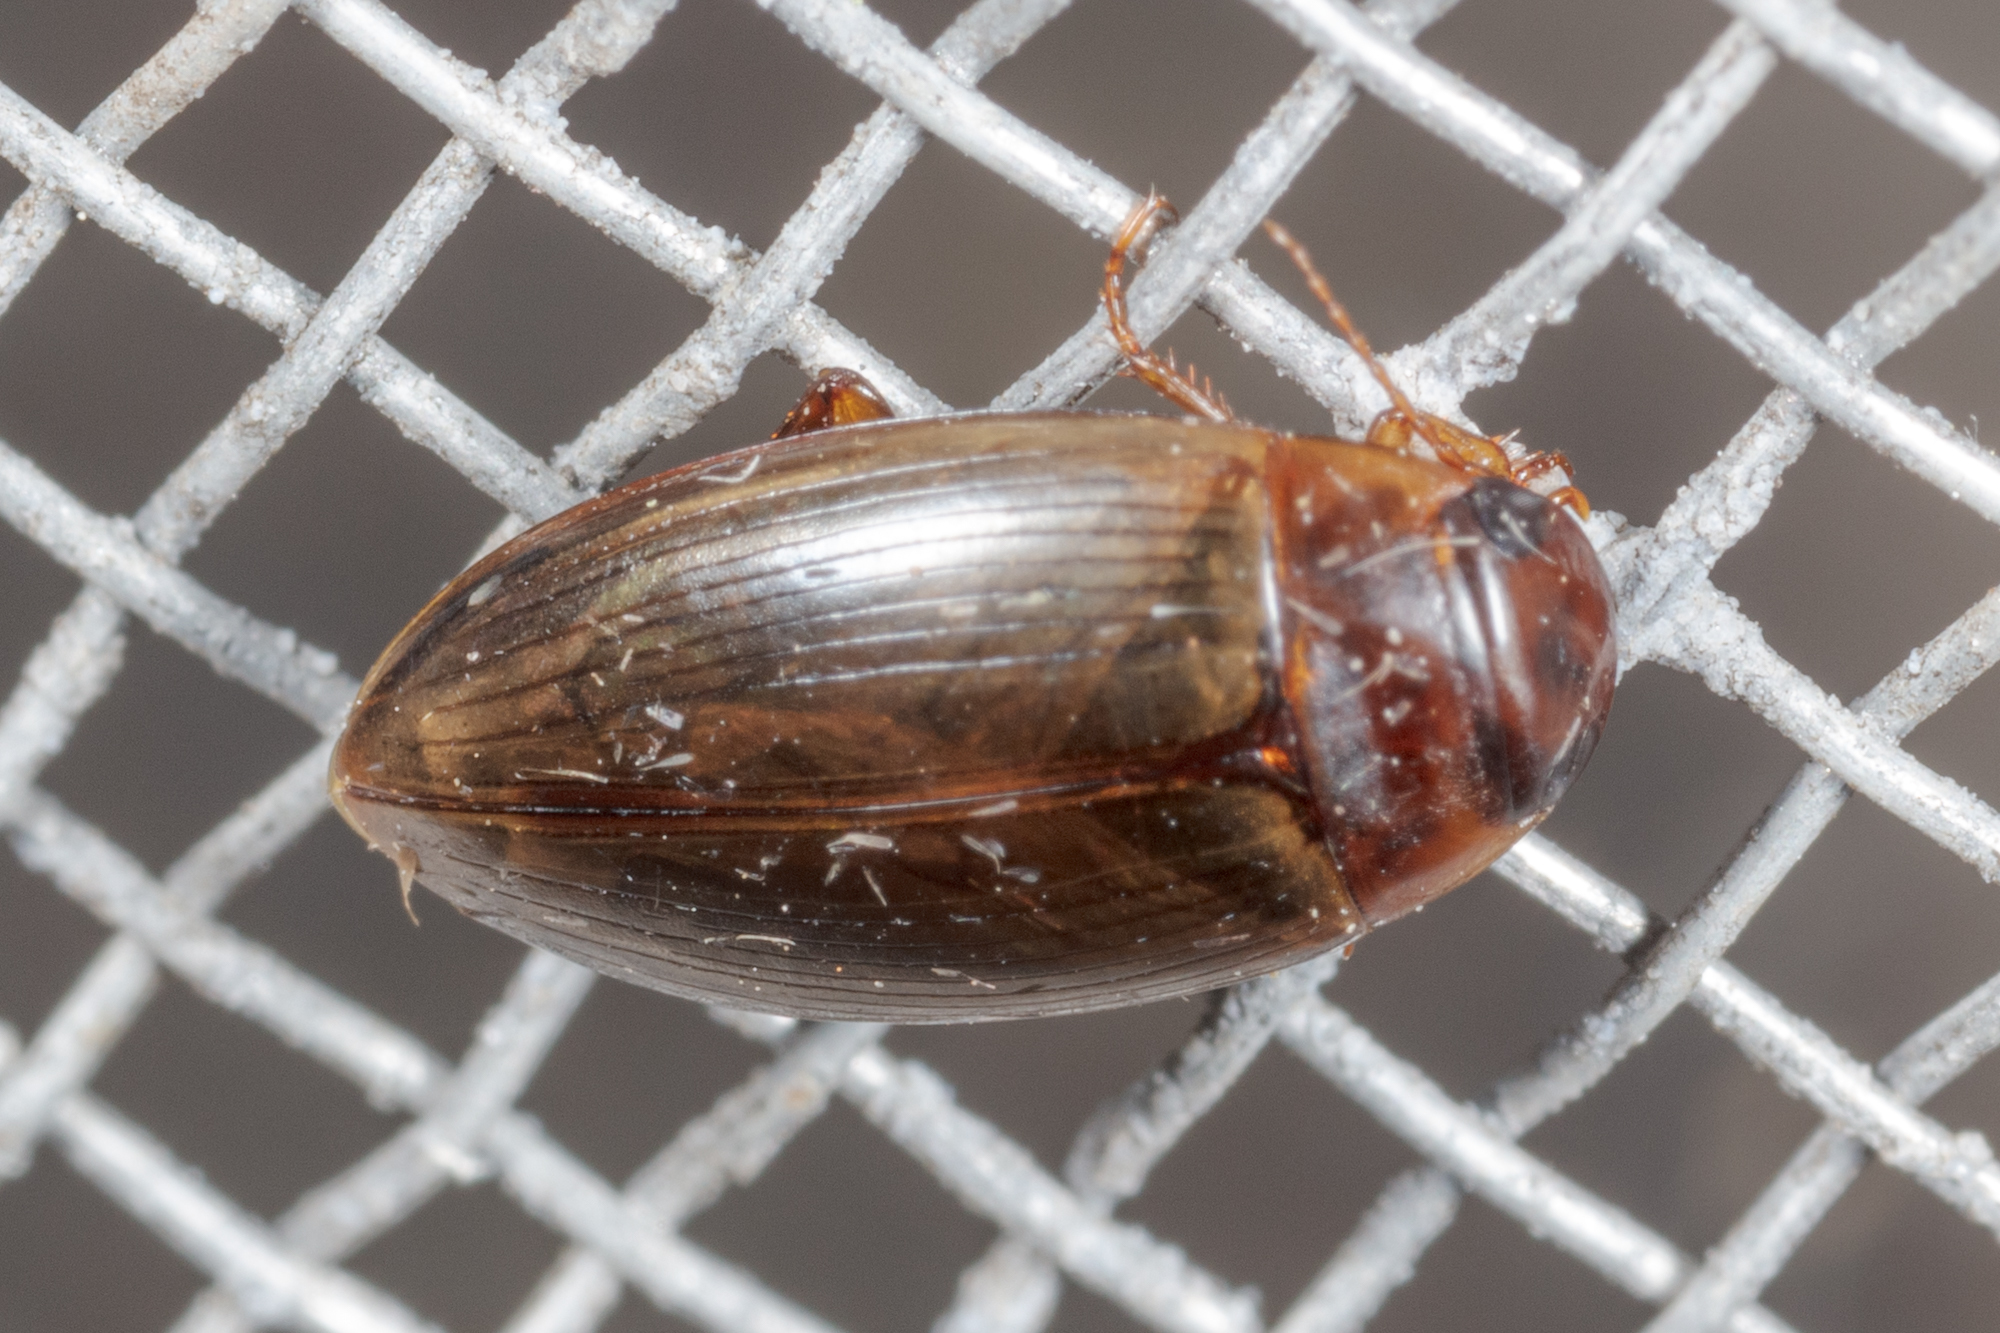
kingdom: Animalia
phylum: Arthropoda
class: Insecta
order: Coleoptera
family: Dytiscidae
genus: Copelatus
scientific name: Copelatus chevrolati
